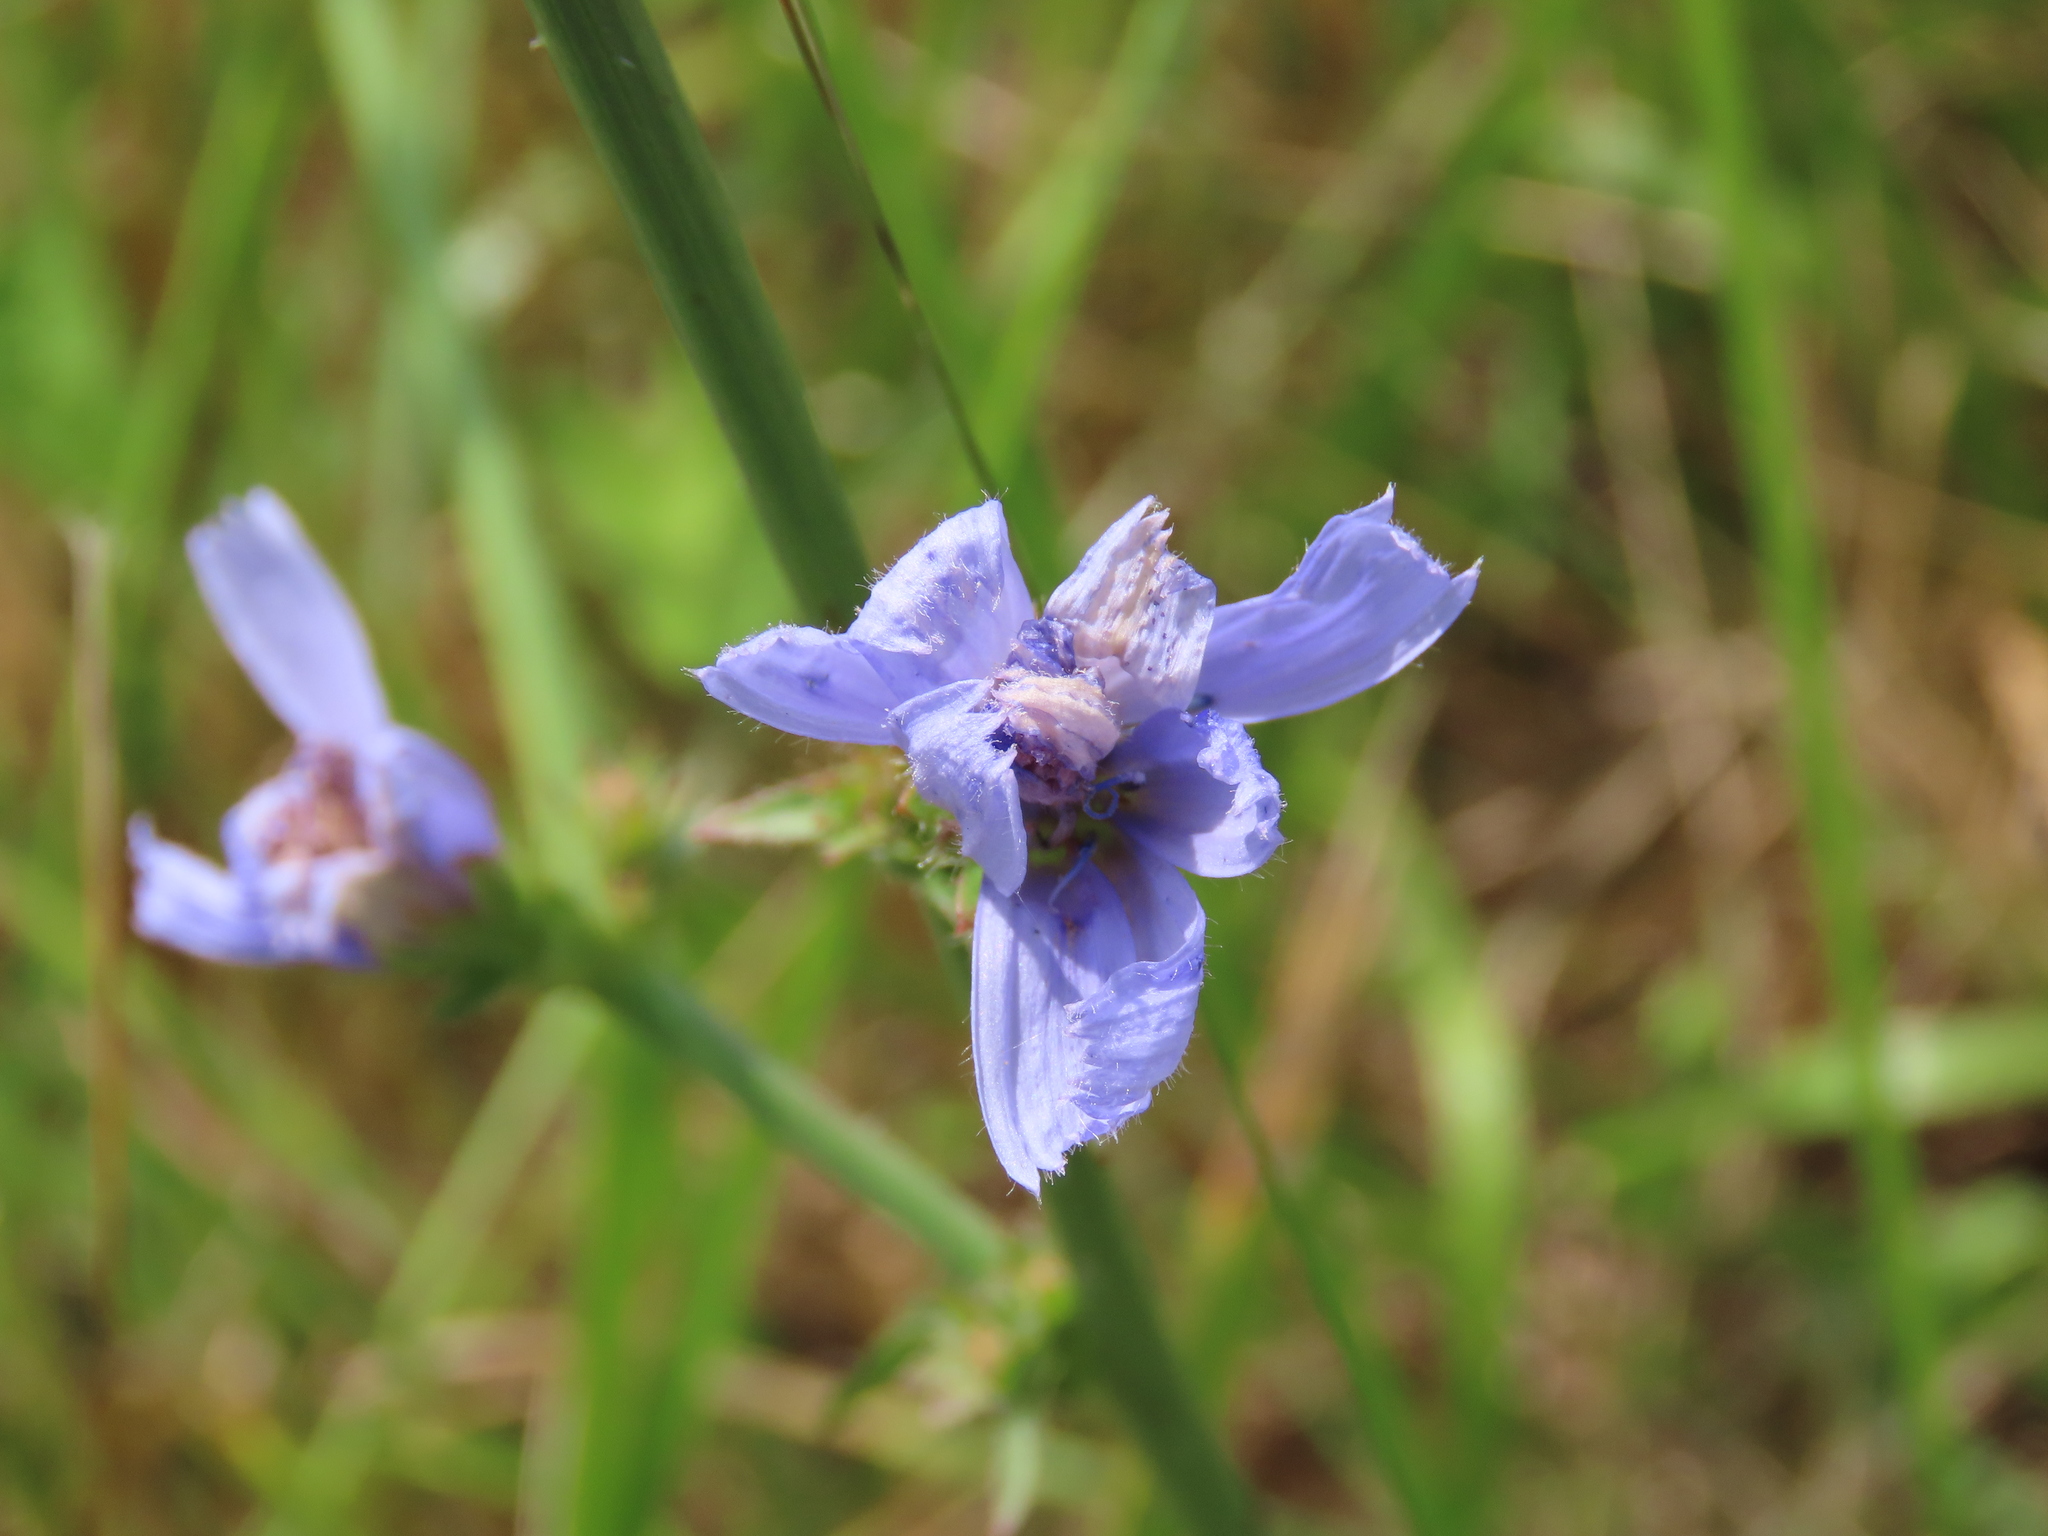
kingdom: Plantae
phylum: Tracheophyta
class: Magnoliopsida
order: Asterales
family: Asteraceae
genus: Cichorium
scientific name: Cichorium intybus
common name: Chicory
